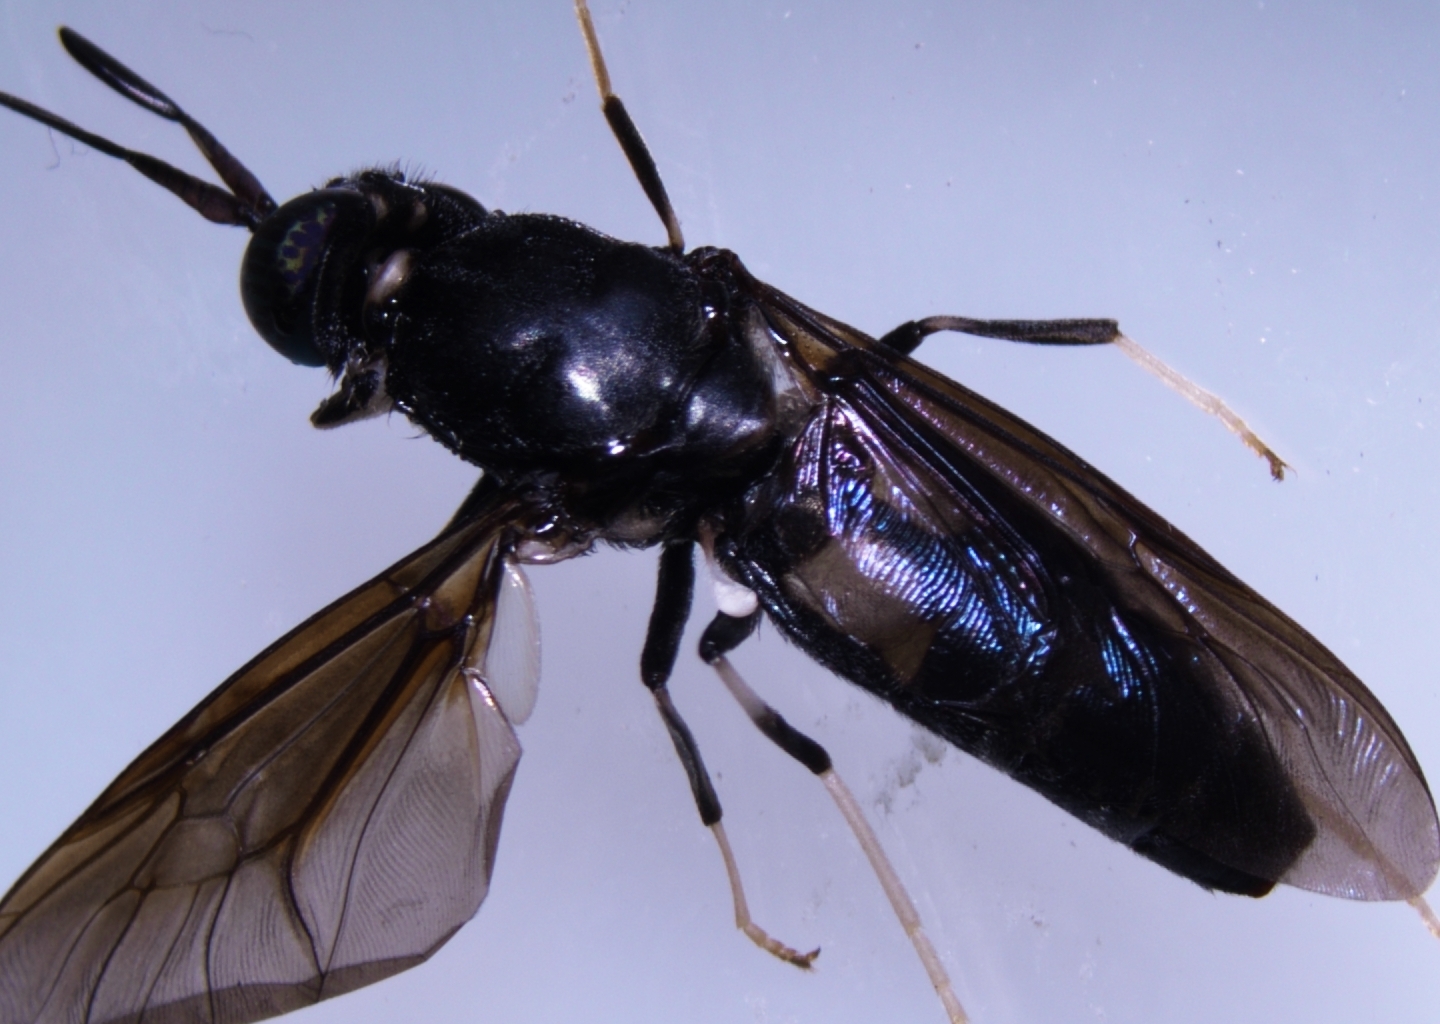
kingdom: Animalia
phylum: Arthropoda
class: Insecta
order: Diptera
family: Stratiomyidae
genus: Hermetia
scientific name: Hermetia illucens
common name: Black soldier fly
